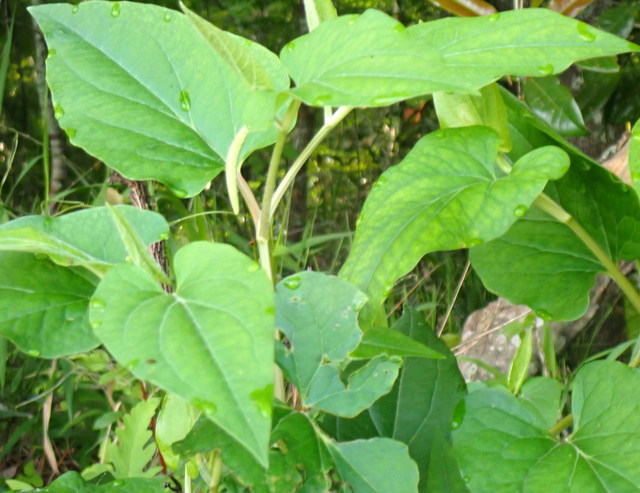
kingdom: Plantae
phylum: Tracheophyta
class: Magnoliopsida
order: Piperales
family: Saururaceae
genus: Saururus
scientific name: Saururus cernuus
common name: Lizard's-tail
